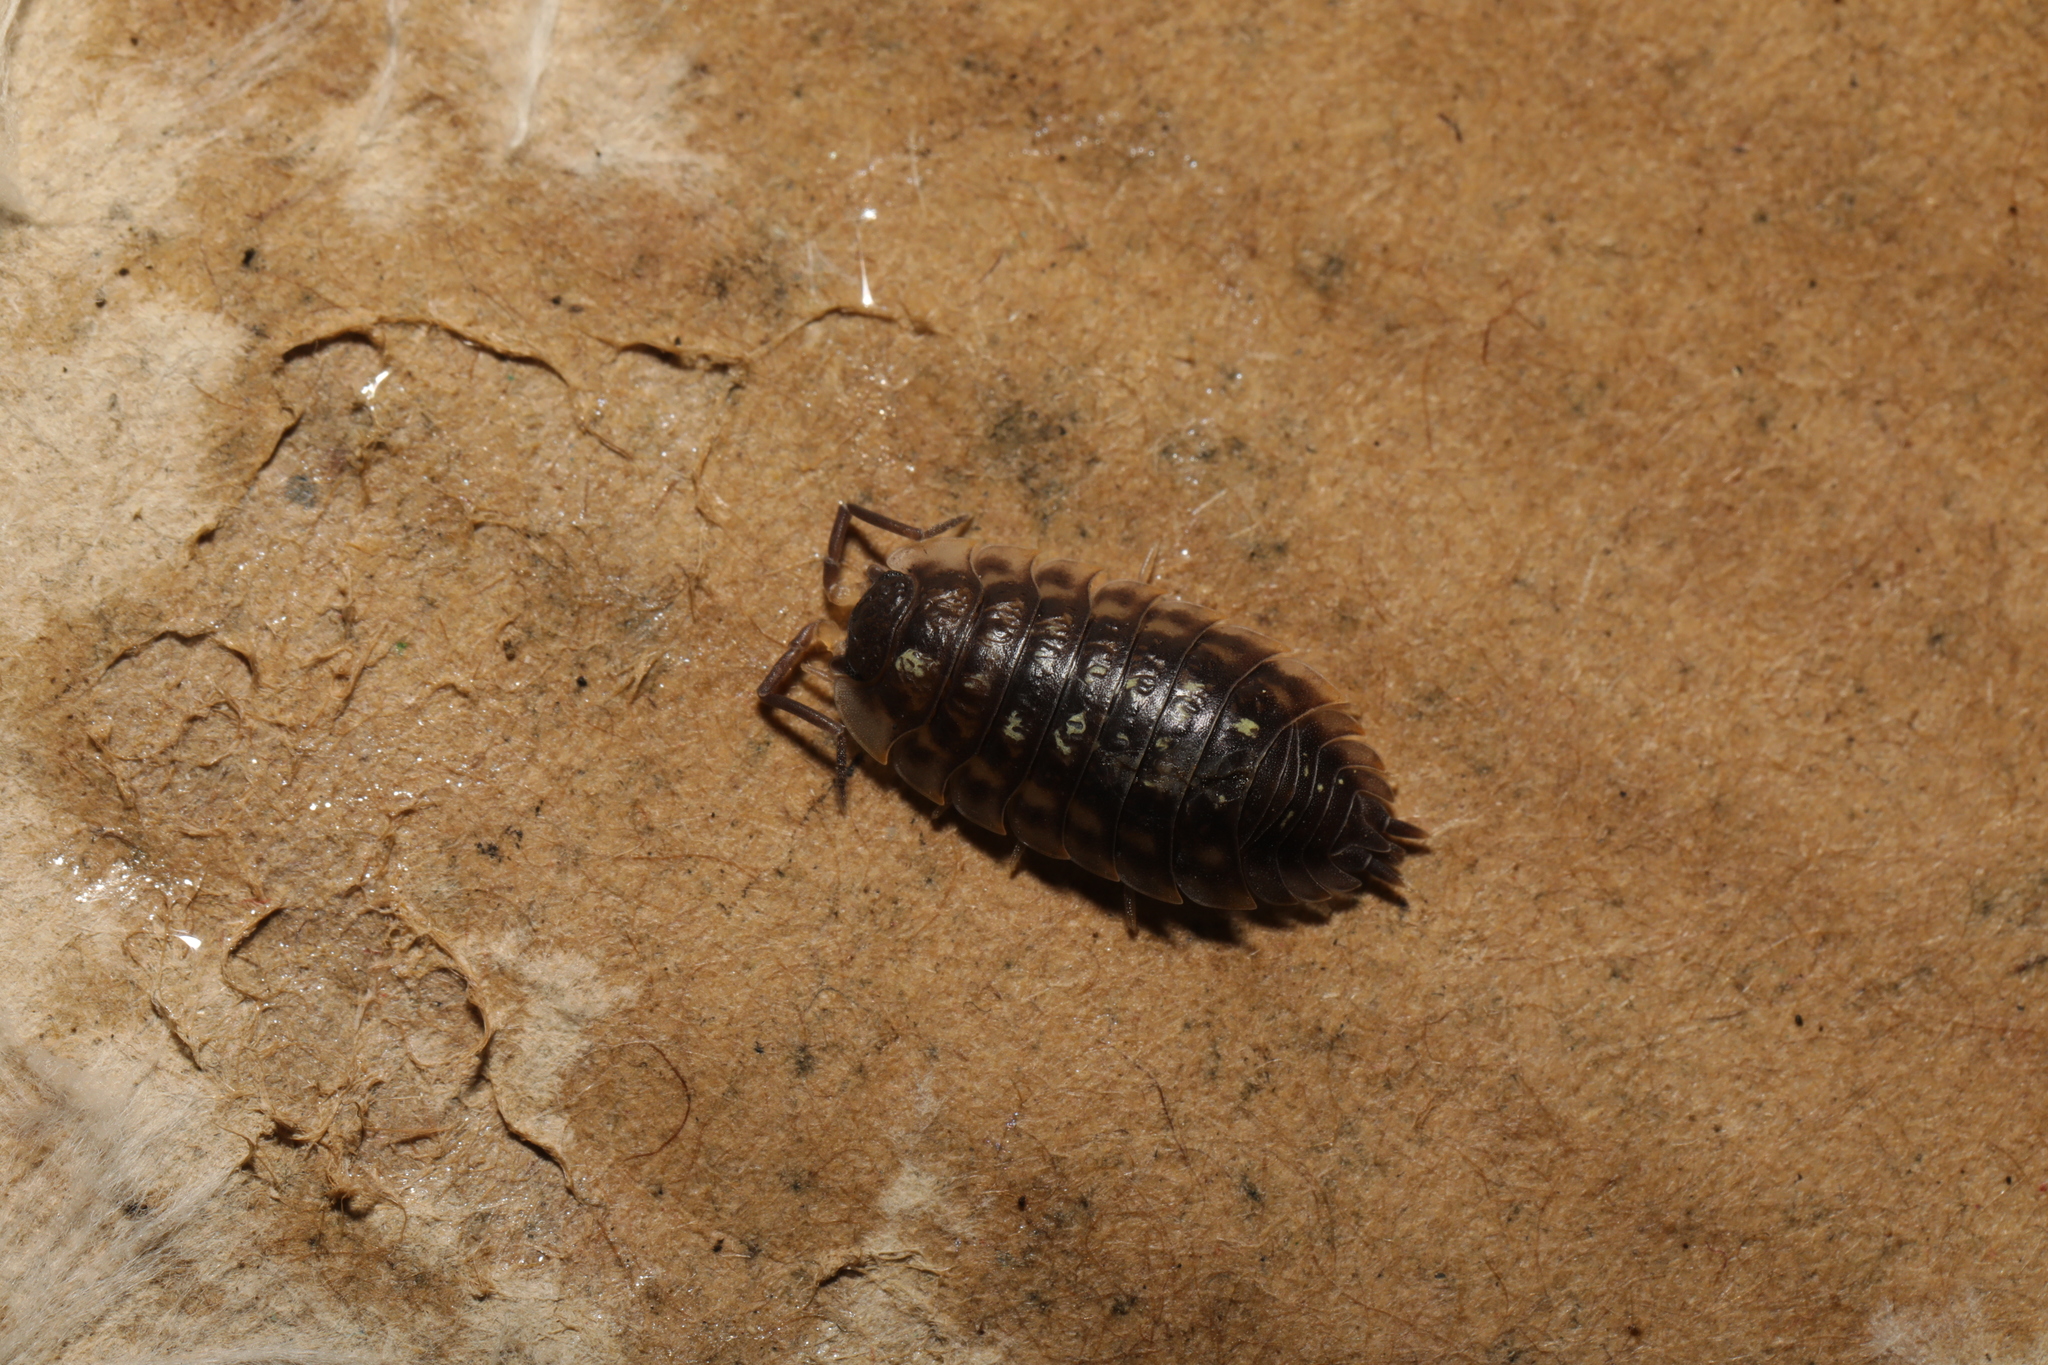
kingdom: Animalia
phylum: Arthropoda
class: Malacostraca
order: Isopoda
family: Oniscidae
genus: Oniscus
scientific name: Oniscus asellus
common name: Common shiny woodlouse
